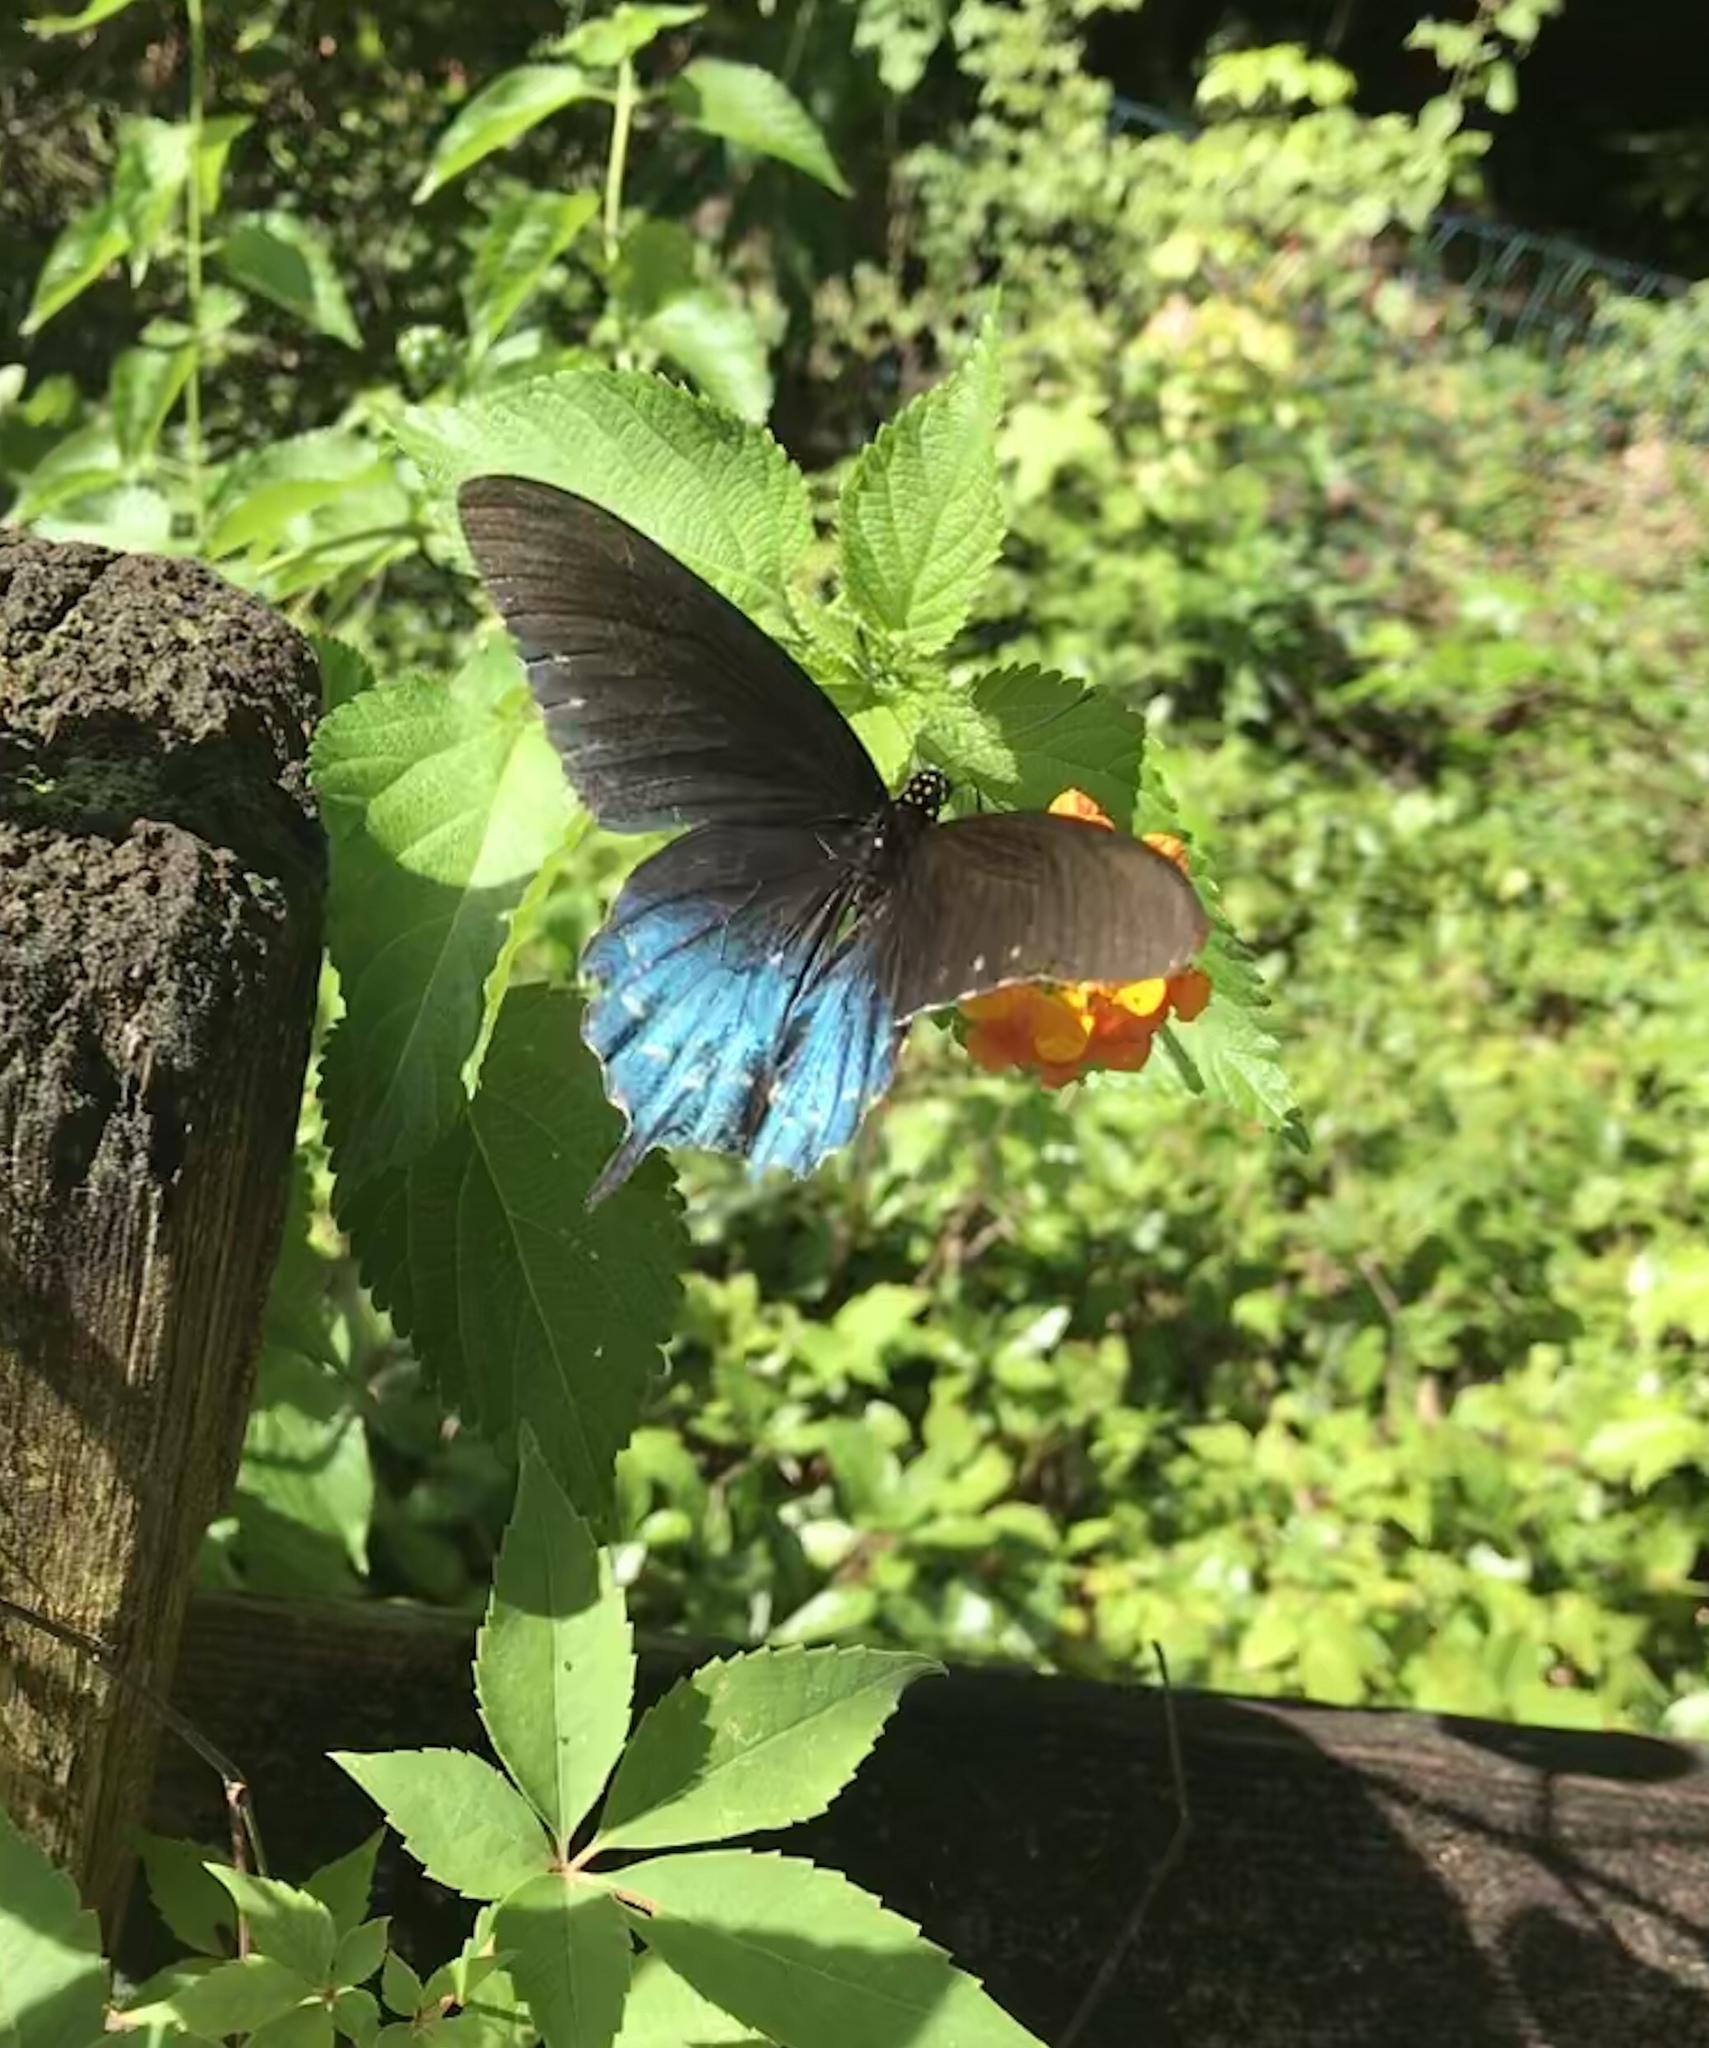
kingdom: Animalia
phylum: Arthropoda
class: Insecta
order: Lepidoptera
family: Papilionidae
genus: Battus
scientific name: Battus philenor
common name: Pipevine swallowtail
